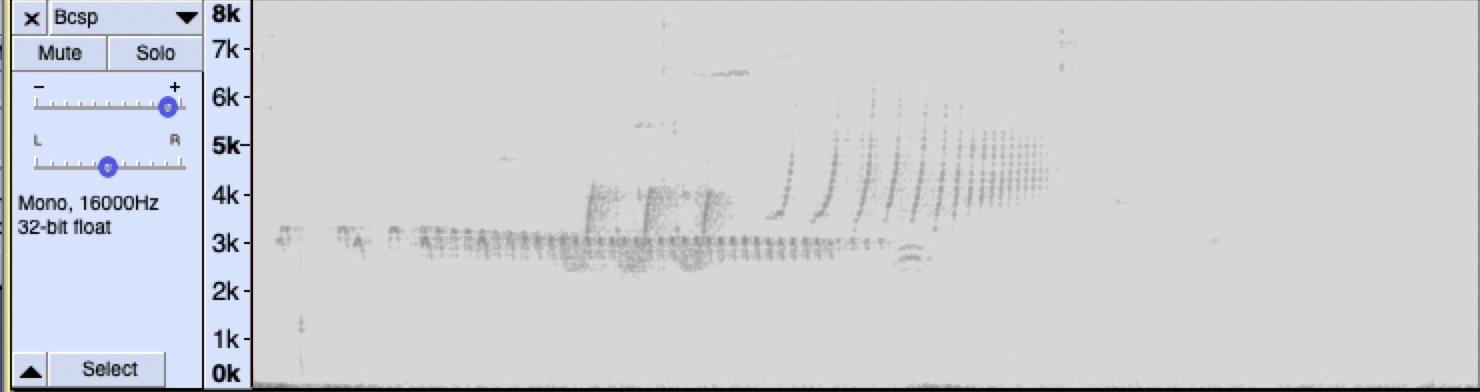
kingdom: Animalia
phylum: Chordata
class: Aves
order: Passeriformes
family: Passerellidae
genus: Spizella
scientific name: Spizella atrogularis
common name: Black-chinned sparrow
